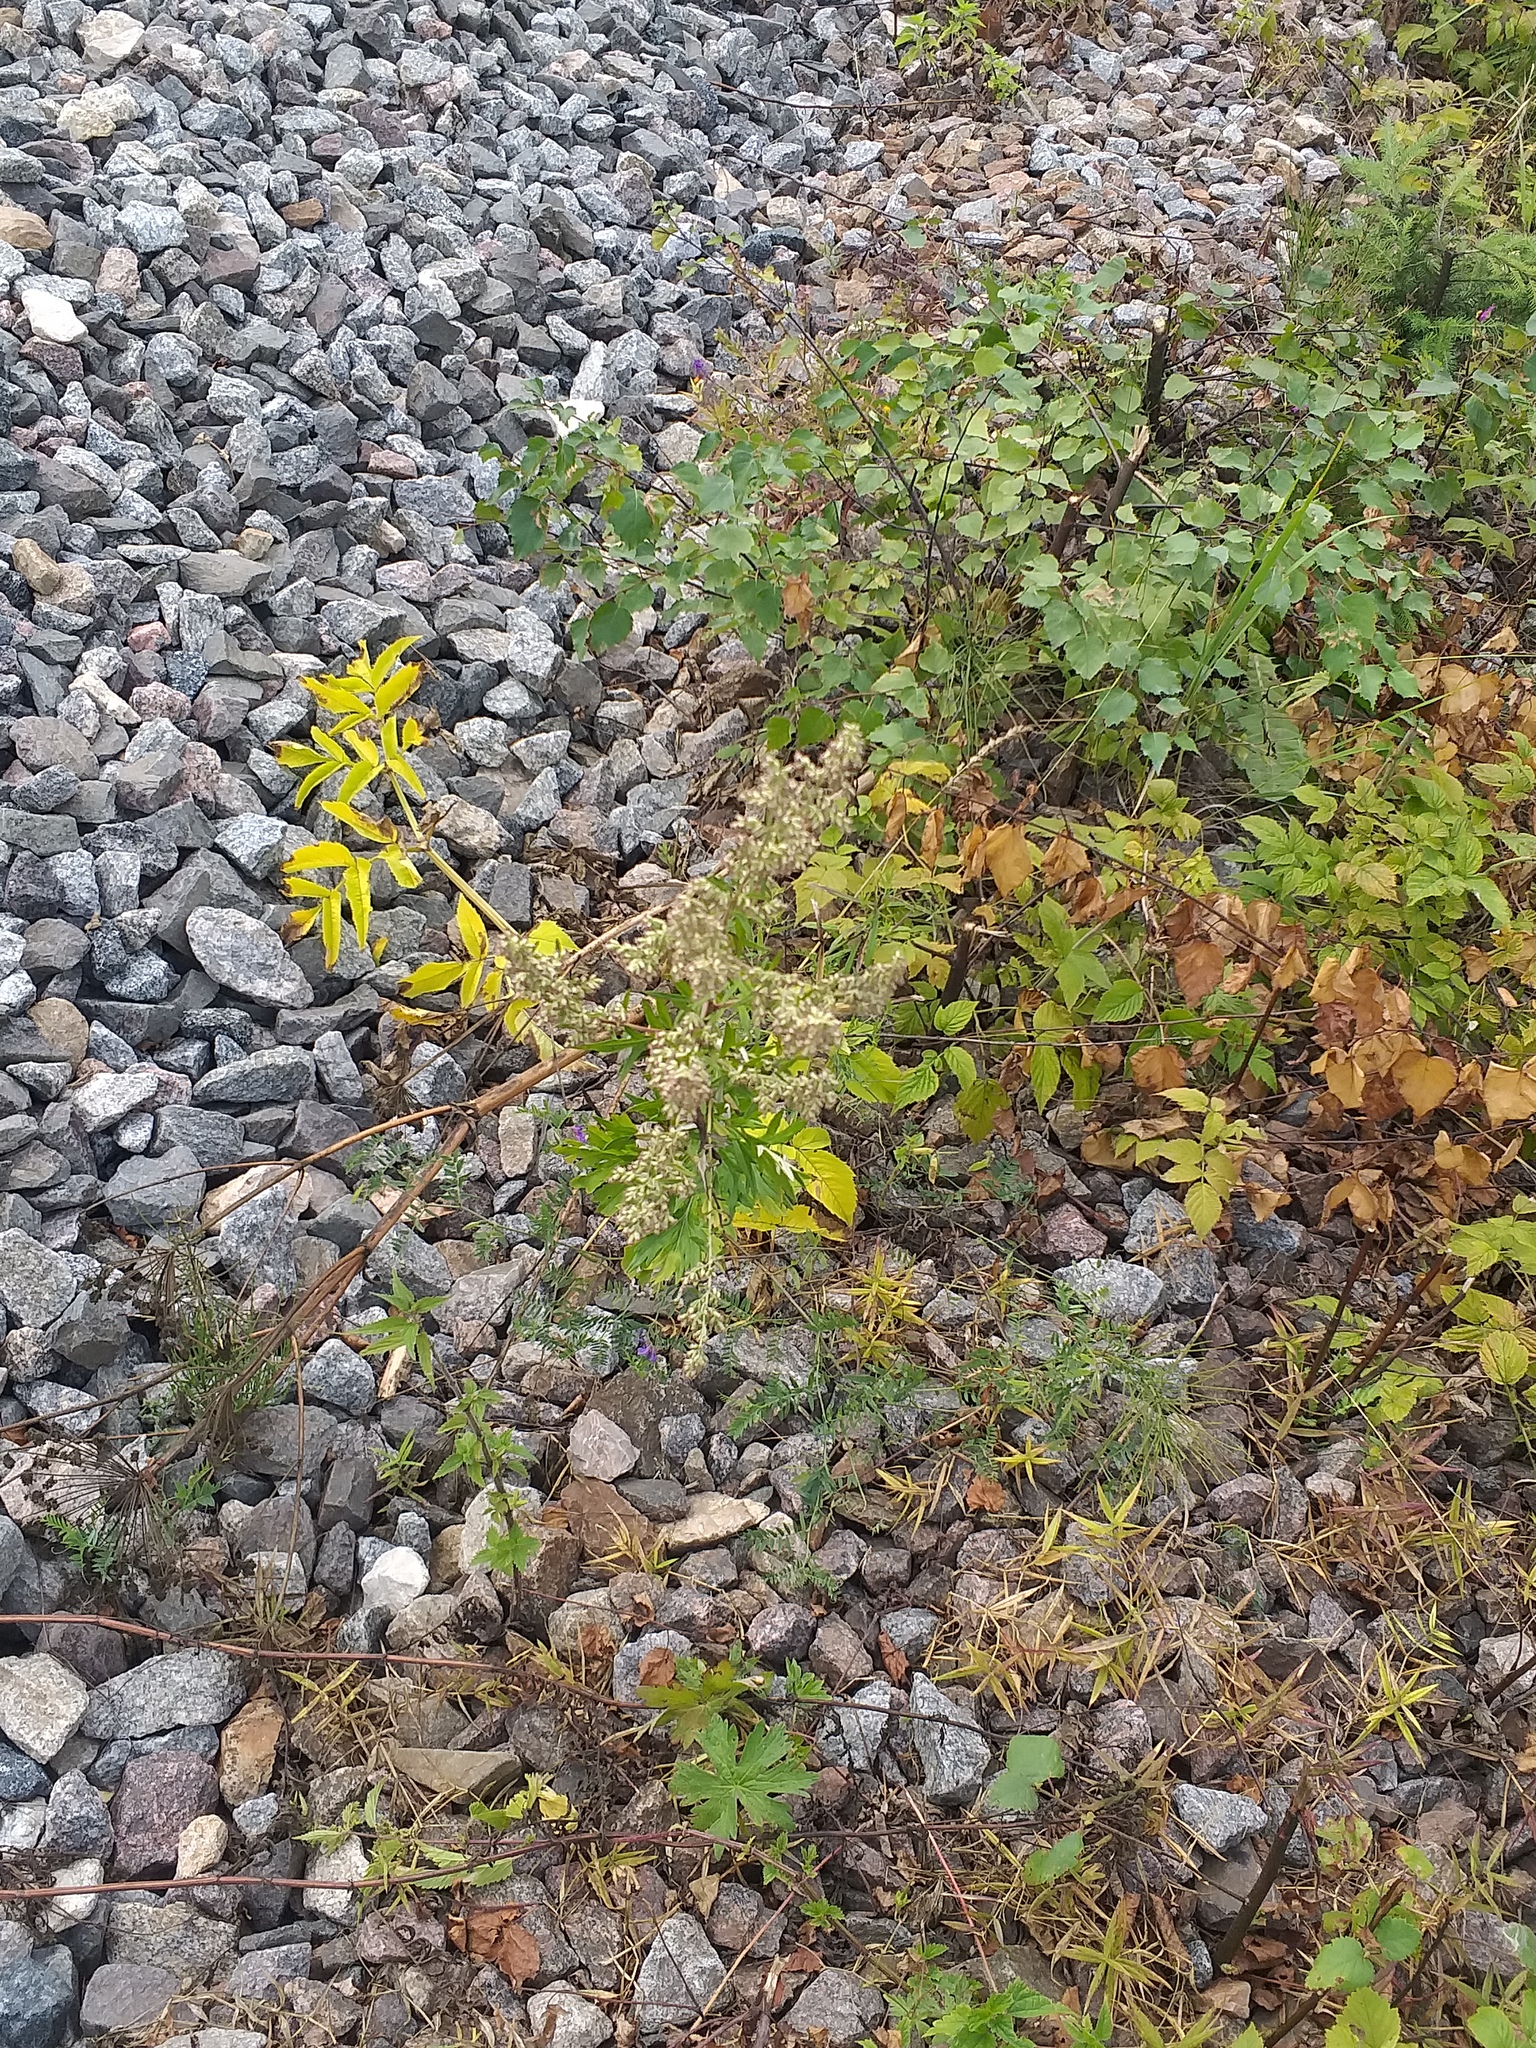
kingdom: Plantae
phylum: Tracheophyta
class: Magnoliopsida
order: Asterales
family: Asteraceae
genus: Artemisia
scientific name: Artemisia vulgaris
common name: Mugwort
